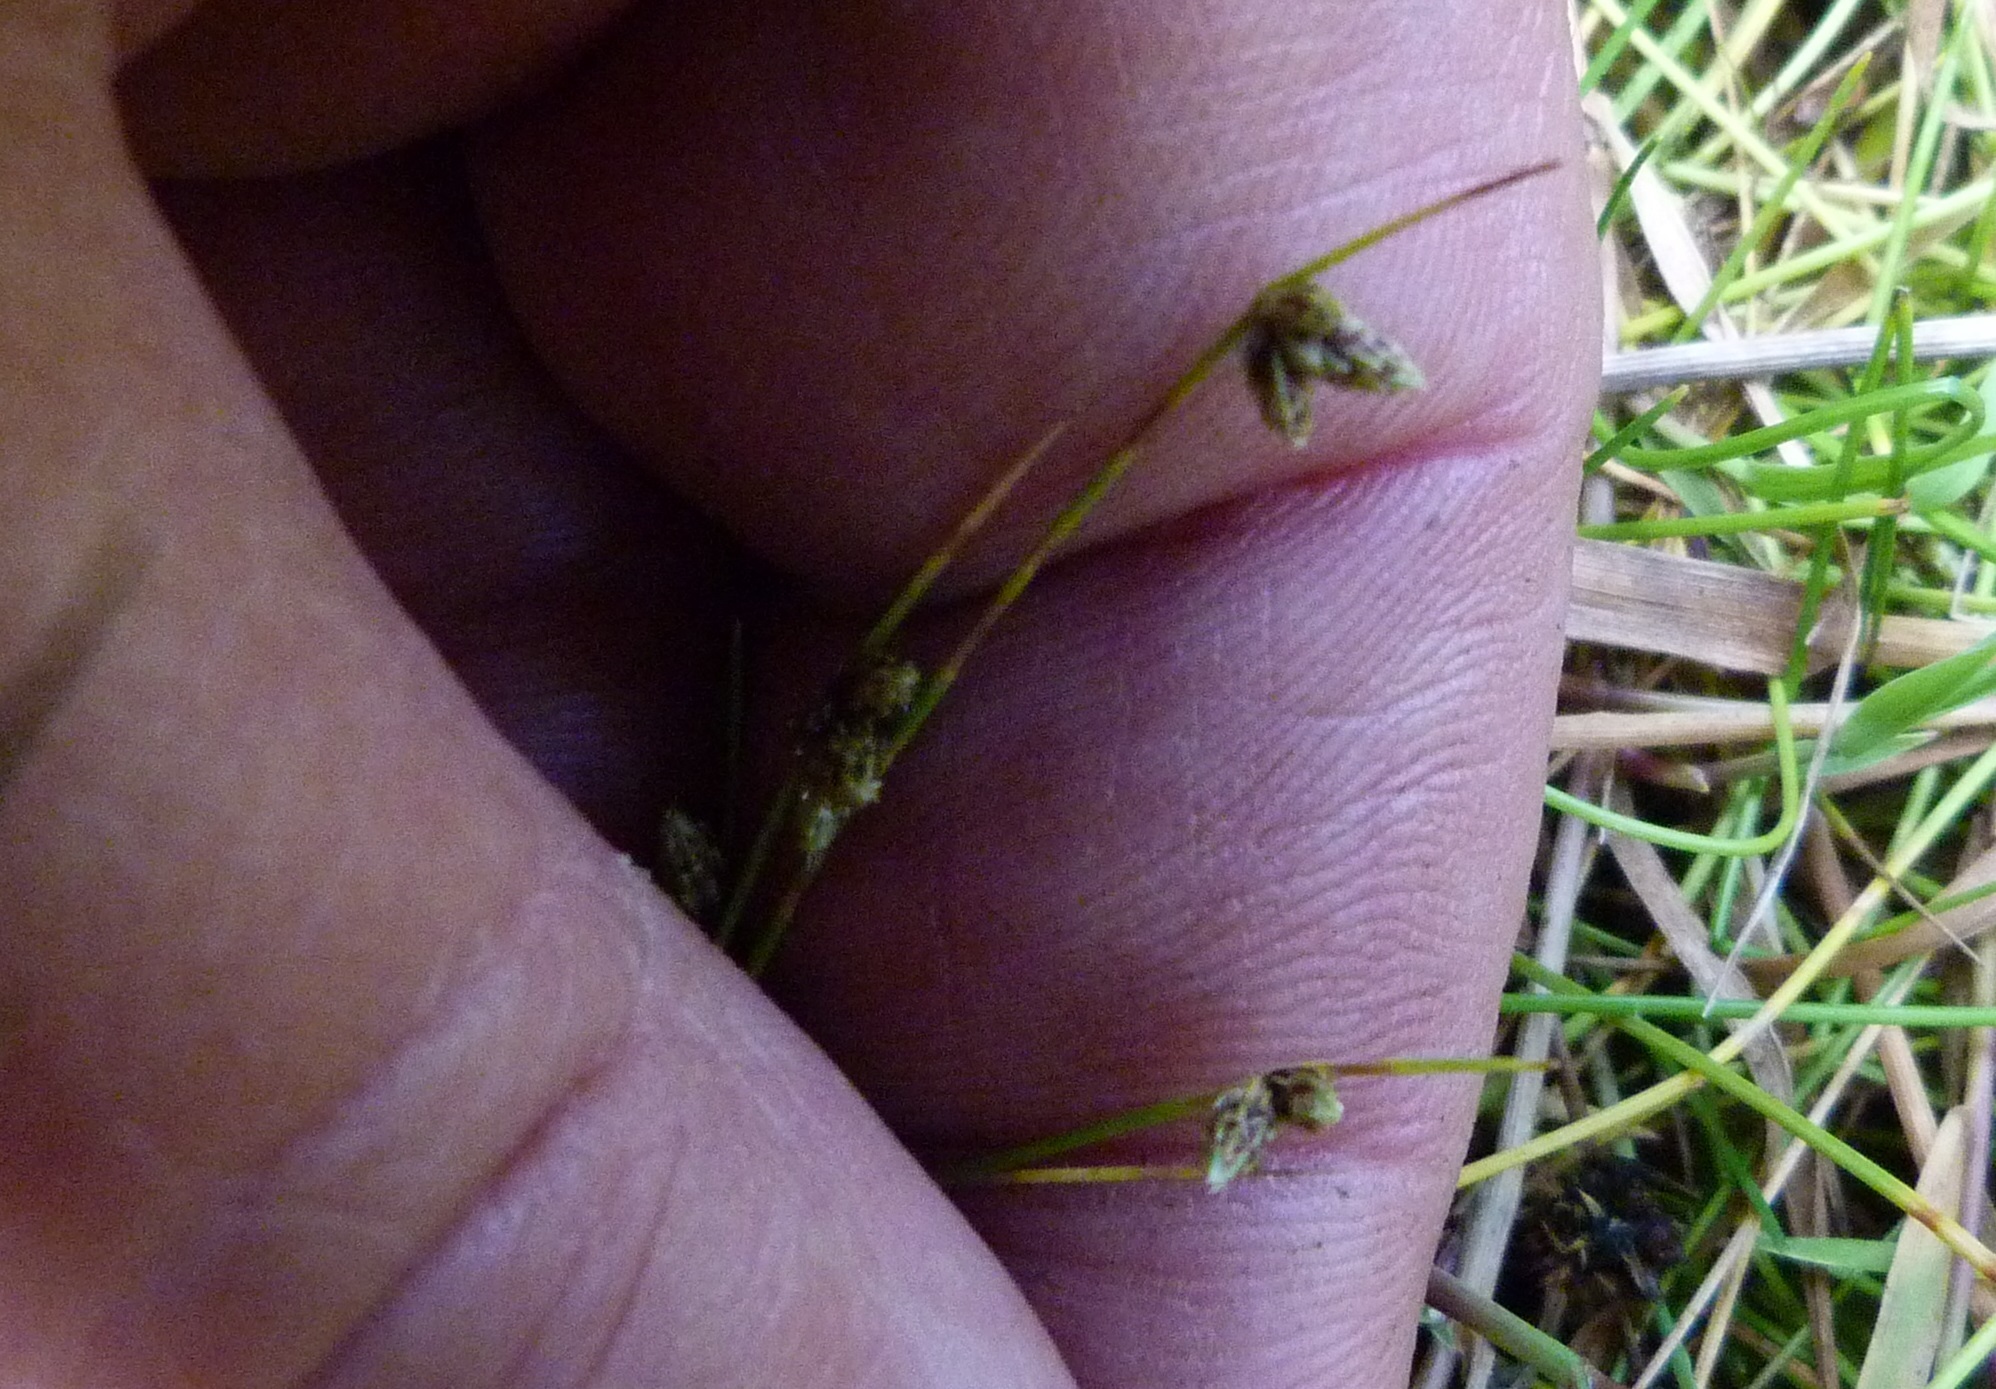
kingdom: Plantae
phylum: Tracheophyta
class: Liliopsida
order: Poales
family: Cyperaceae
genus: Isolepis
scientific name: Isolepis setacea
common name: Bristle club-rush
